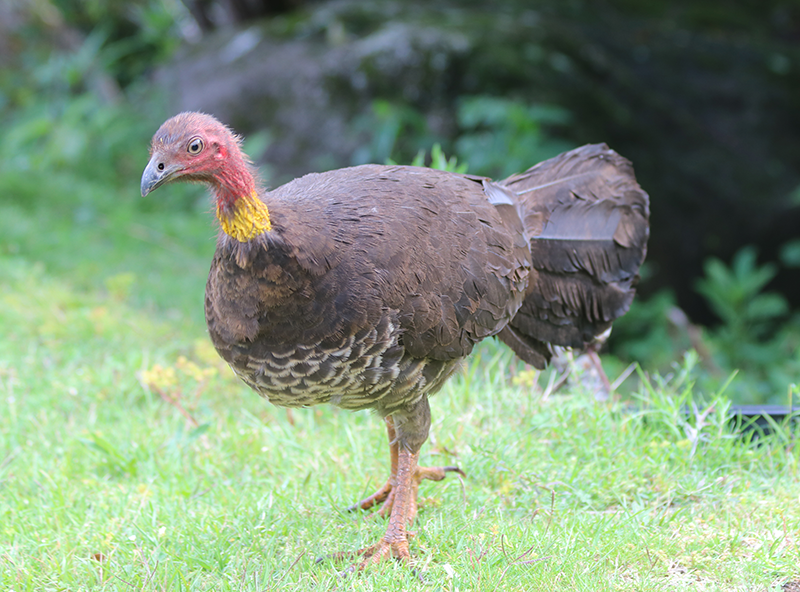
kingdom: Animalia
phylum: Chordata
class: Aves
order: Galliformes
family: Megapodiidae
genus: Alectura
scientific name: Alectura lathami
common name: Australian brushturkey
